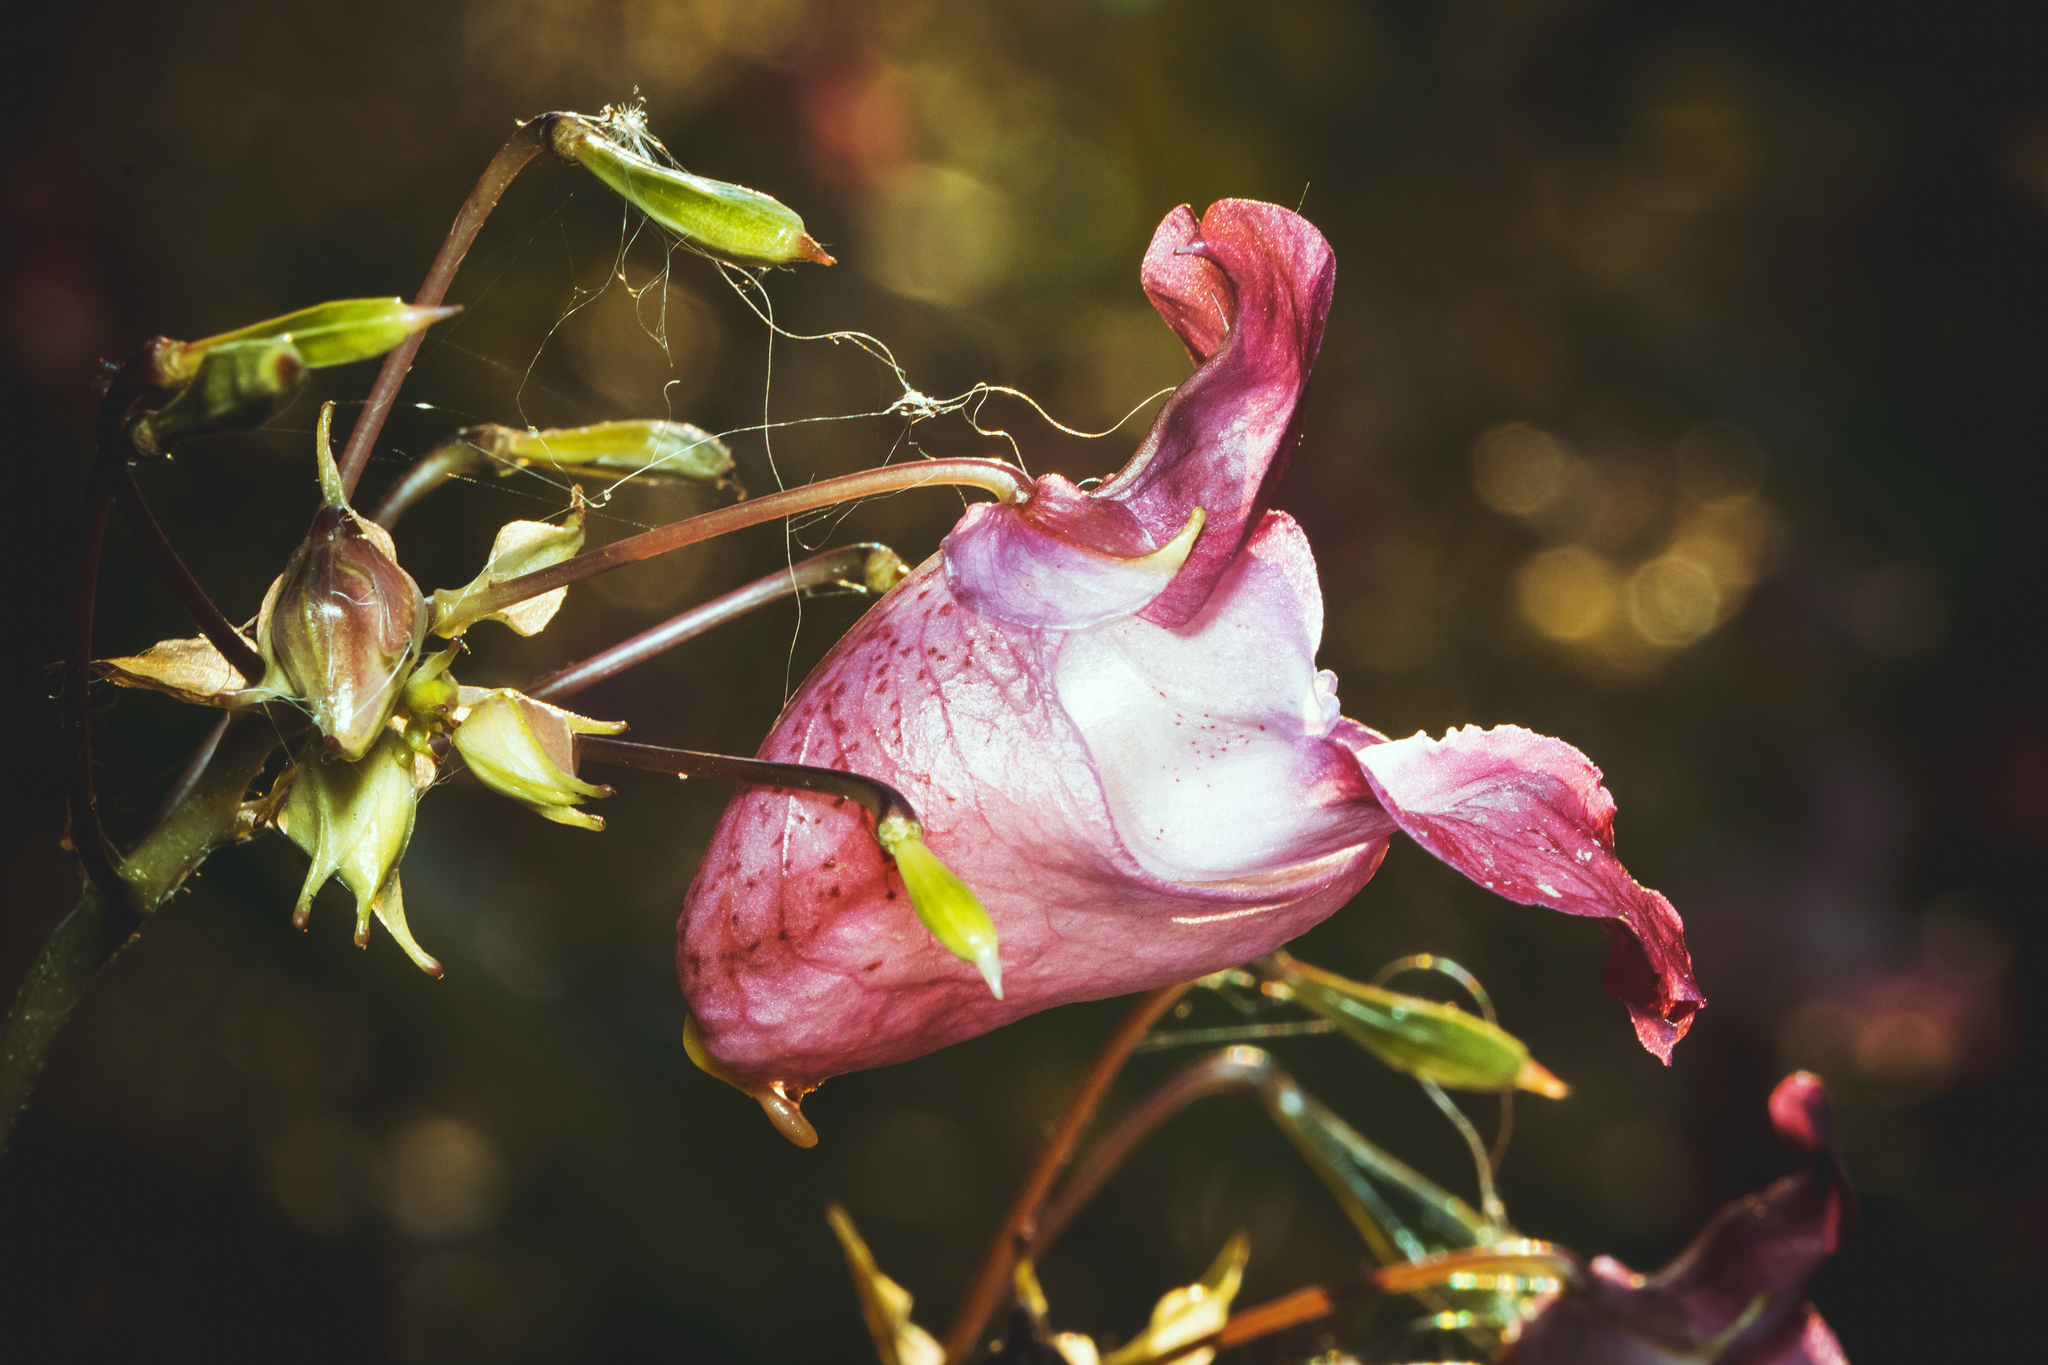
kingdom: Plantae
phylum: Tracheophyta
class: Magnoliopsida
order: Ericales
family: Balsaminaceae
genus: Impatiens
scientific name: Impatiens glandulifera
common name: Himalayan balsam
